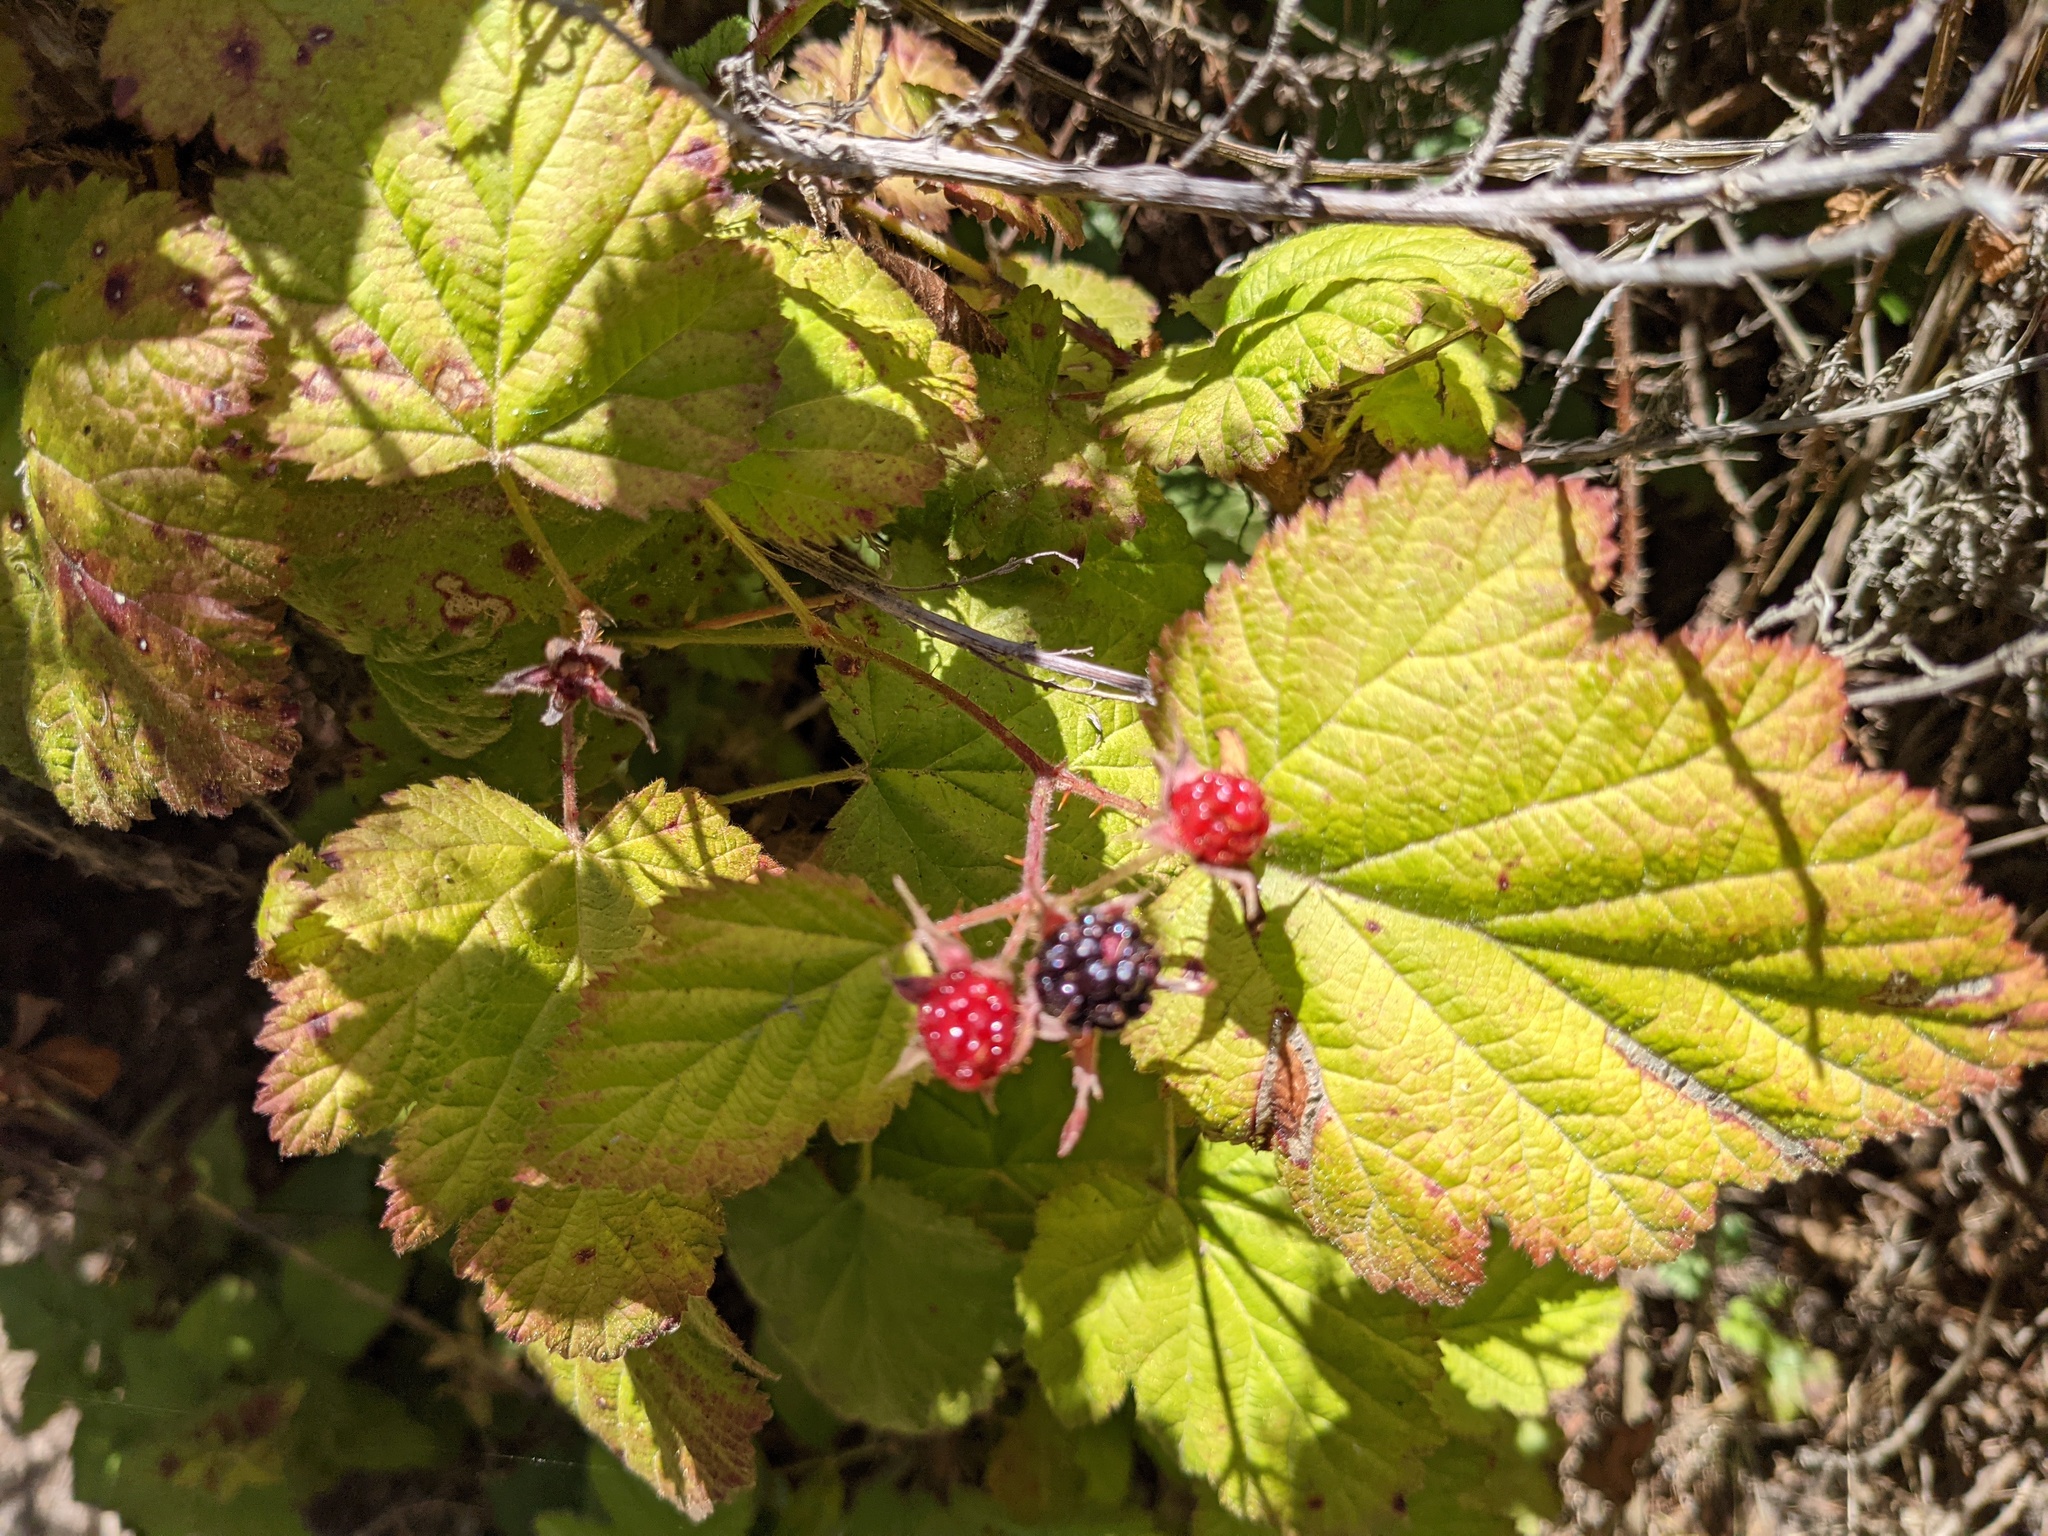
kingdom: Plantae
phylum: Tracheophyta
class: Magnoliopsida
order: Rosales
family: Rosaceae
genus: Rubus
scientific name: Rubus ursinus
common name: Pacific blackberry
